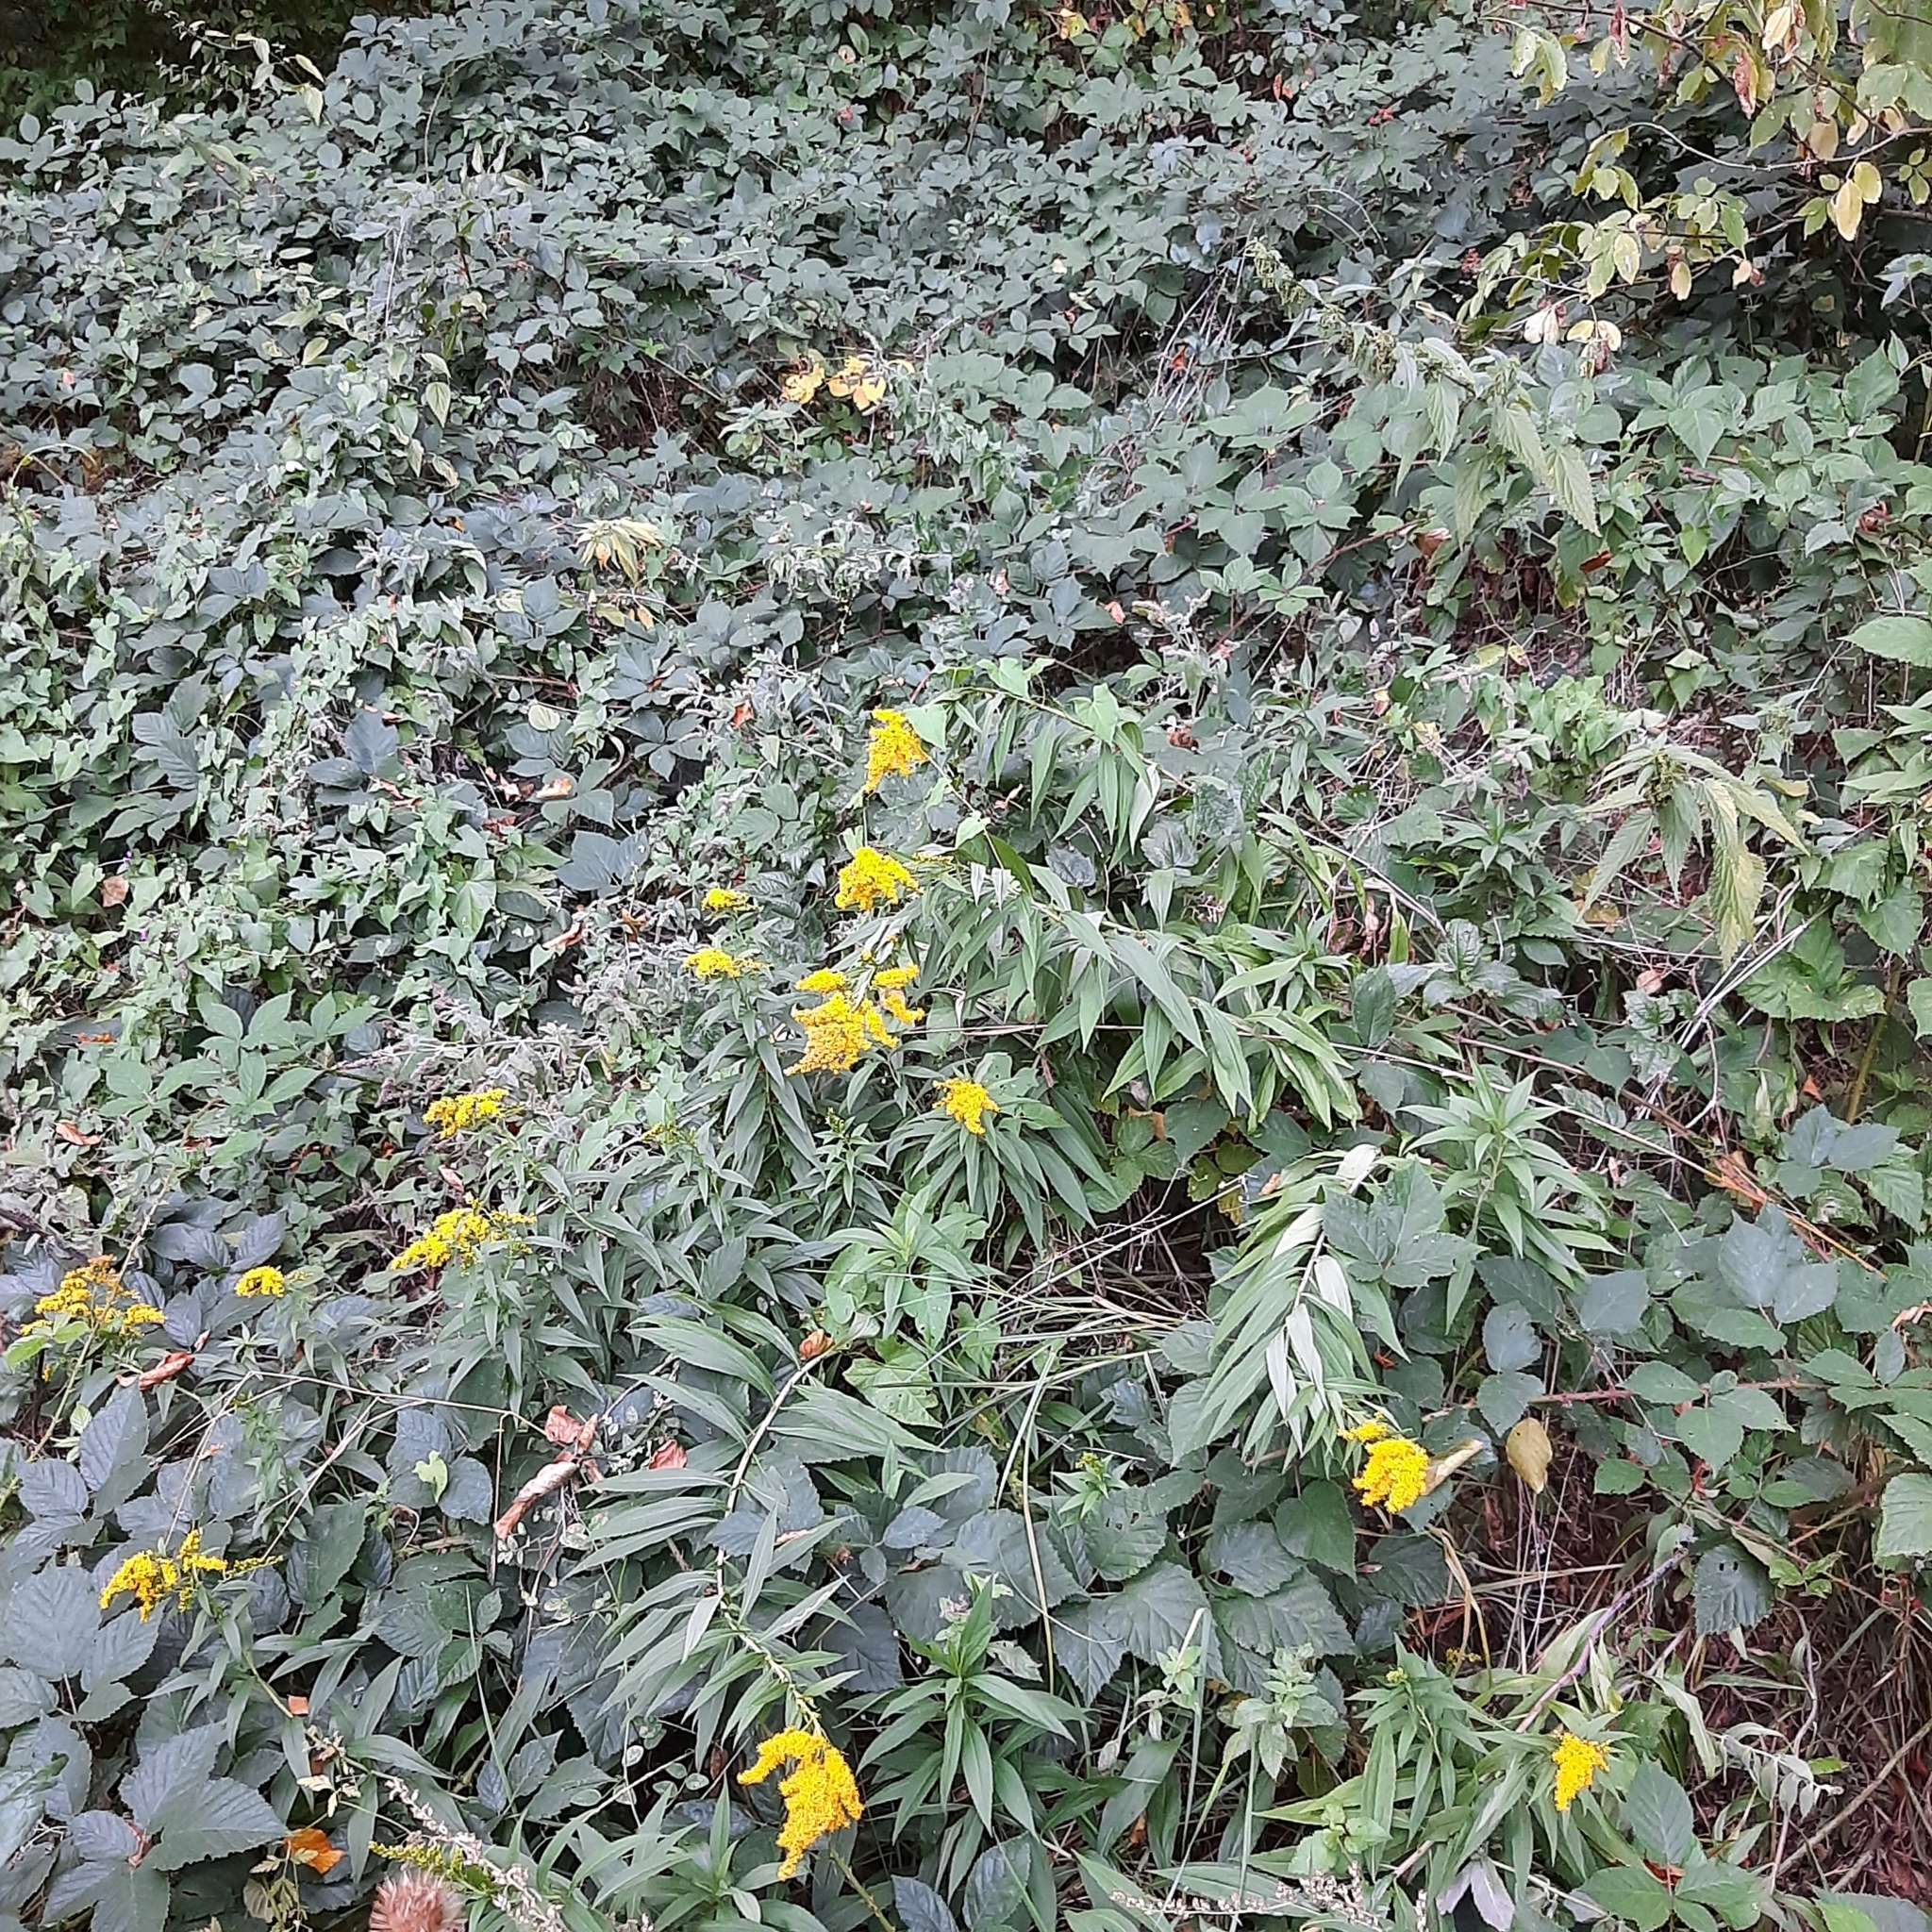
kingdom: Plantae
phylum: Tracheophyta
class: Magnoliopsida
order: Asterales
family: Asteraceae
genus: Solidago
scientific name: Solidago gigantea
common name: Giant goldenrod
